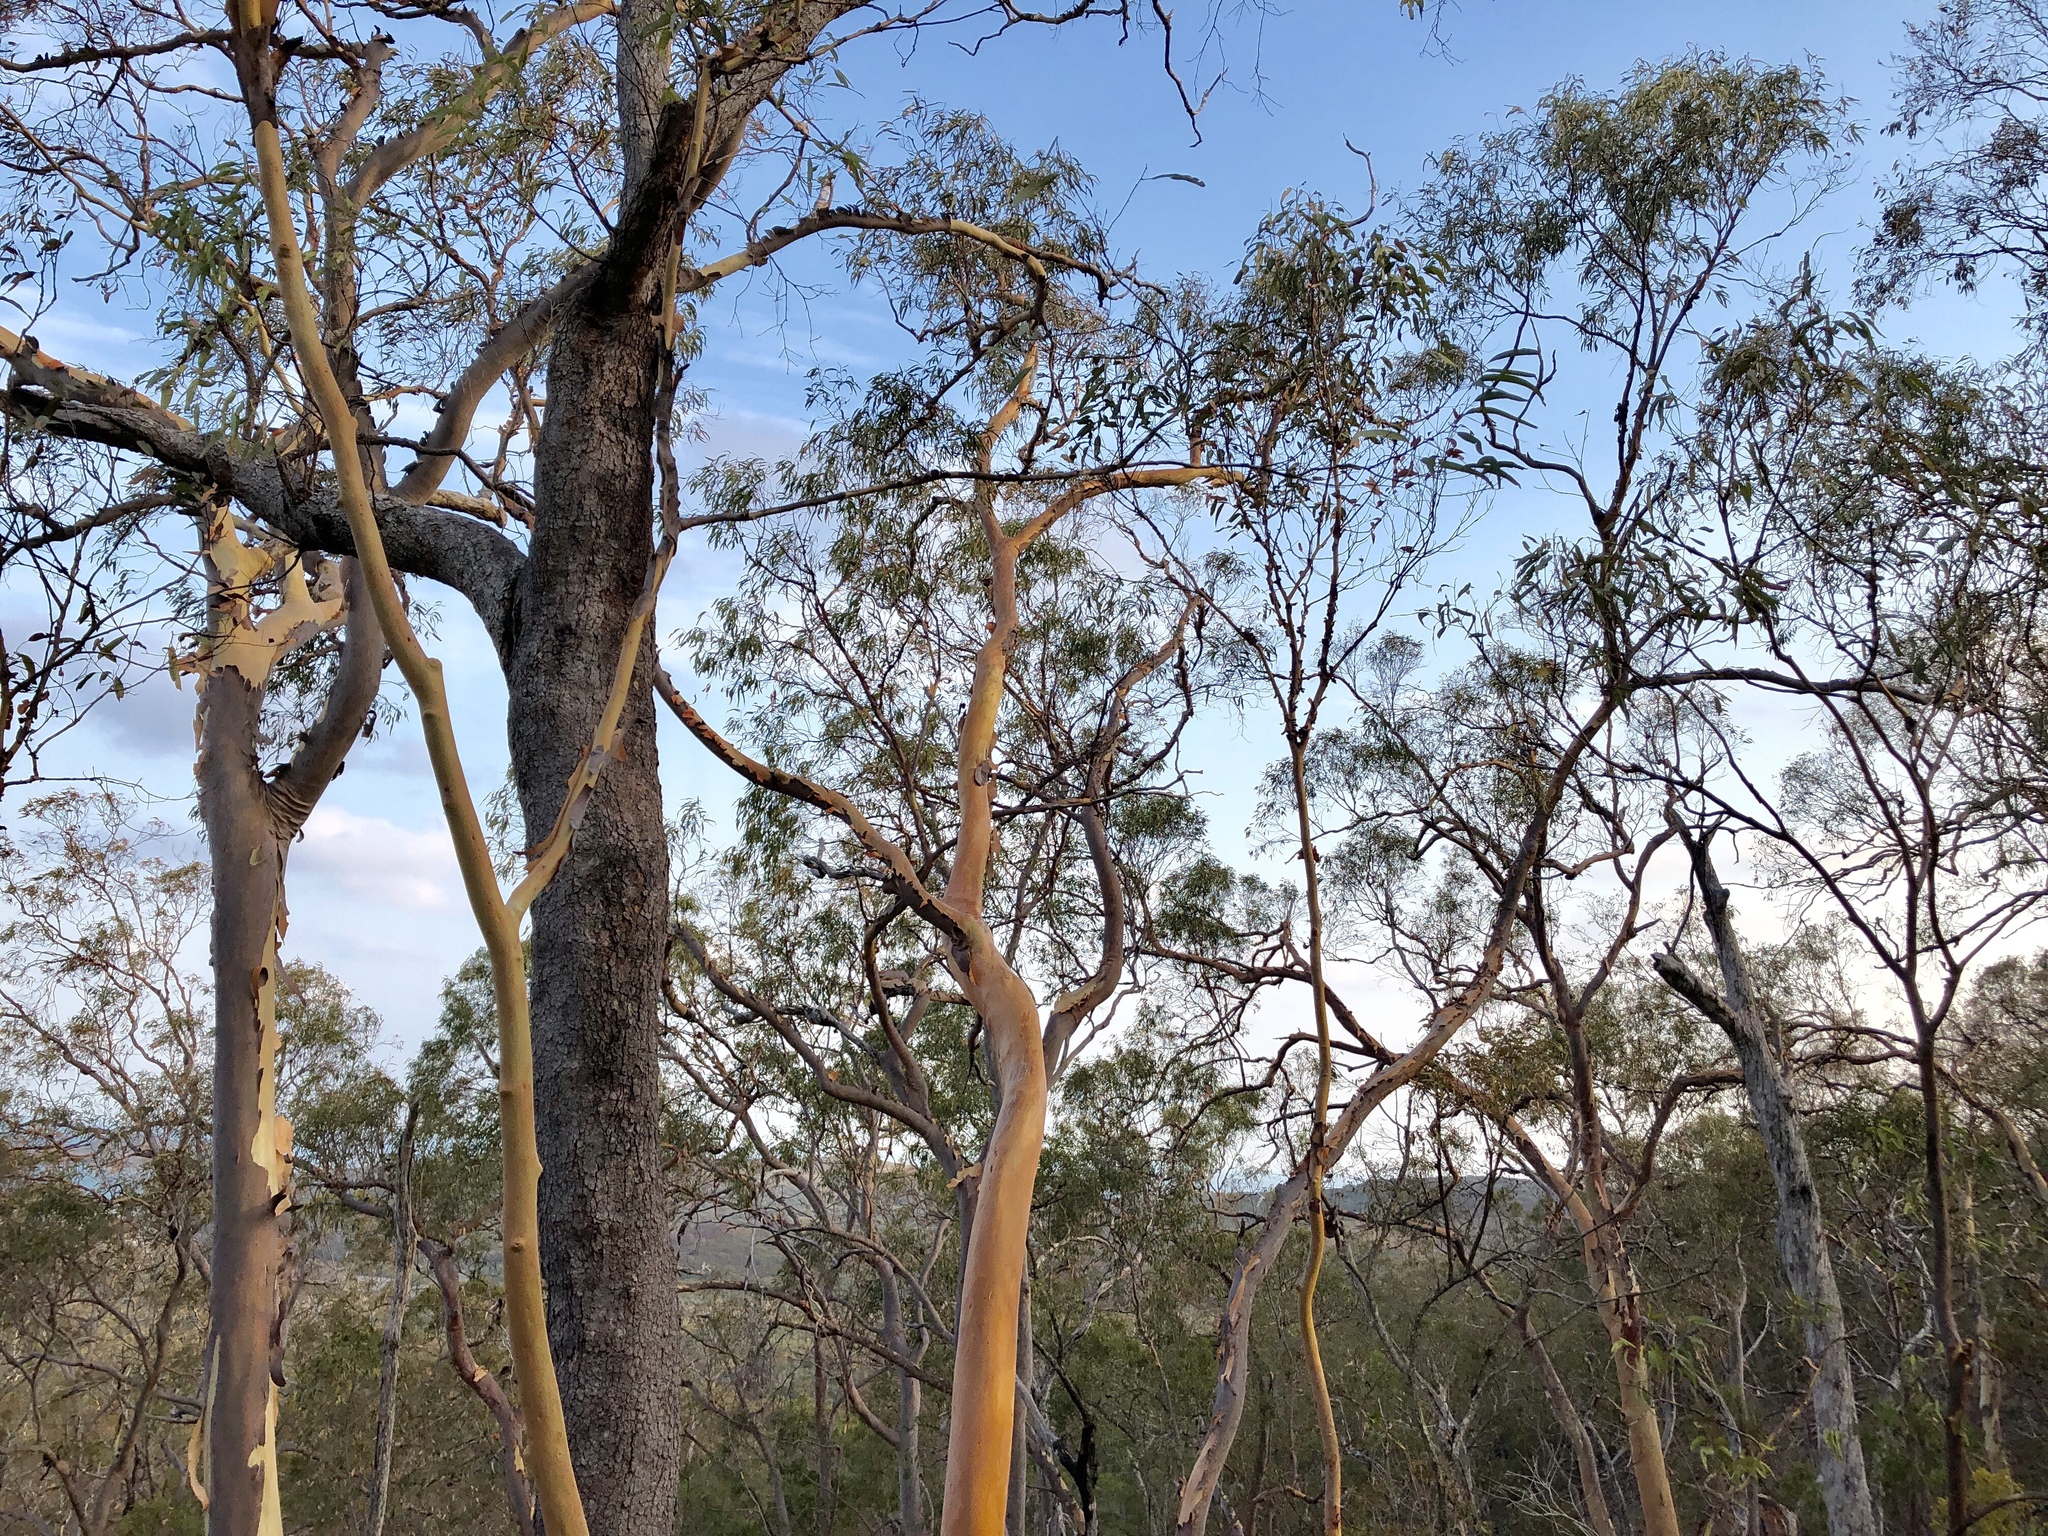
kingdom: Plantae
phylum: Tracheophyta
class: Magnoliopsida
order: Myrtales
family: Myrtaceae
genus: Corymbia
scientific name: Corymbia citriodora
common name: Lemonscented gum
